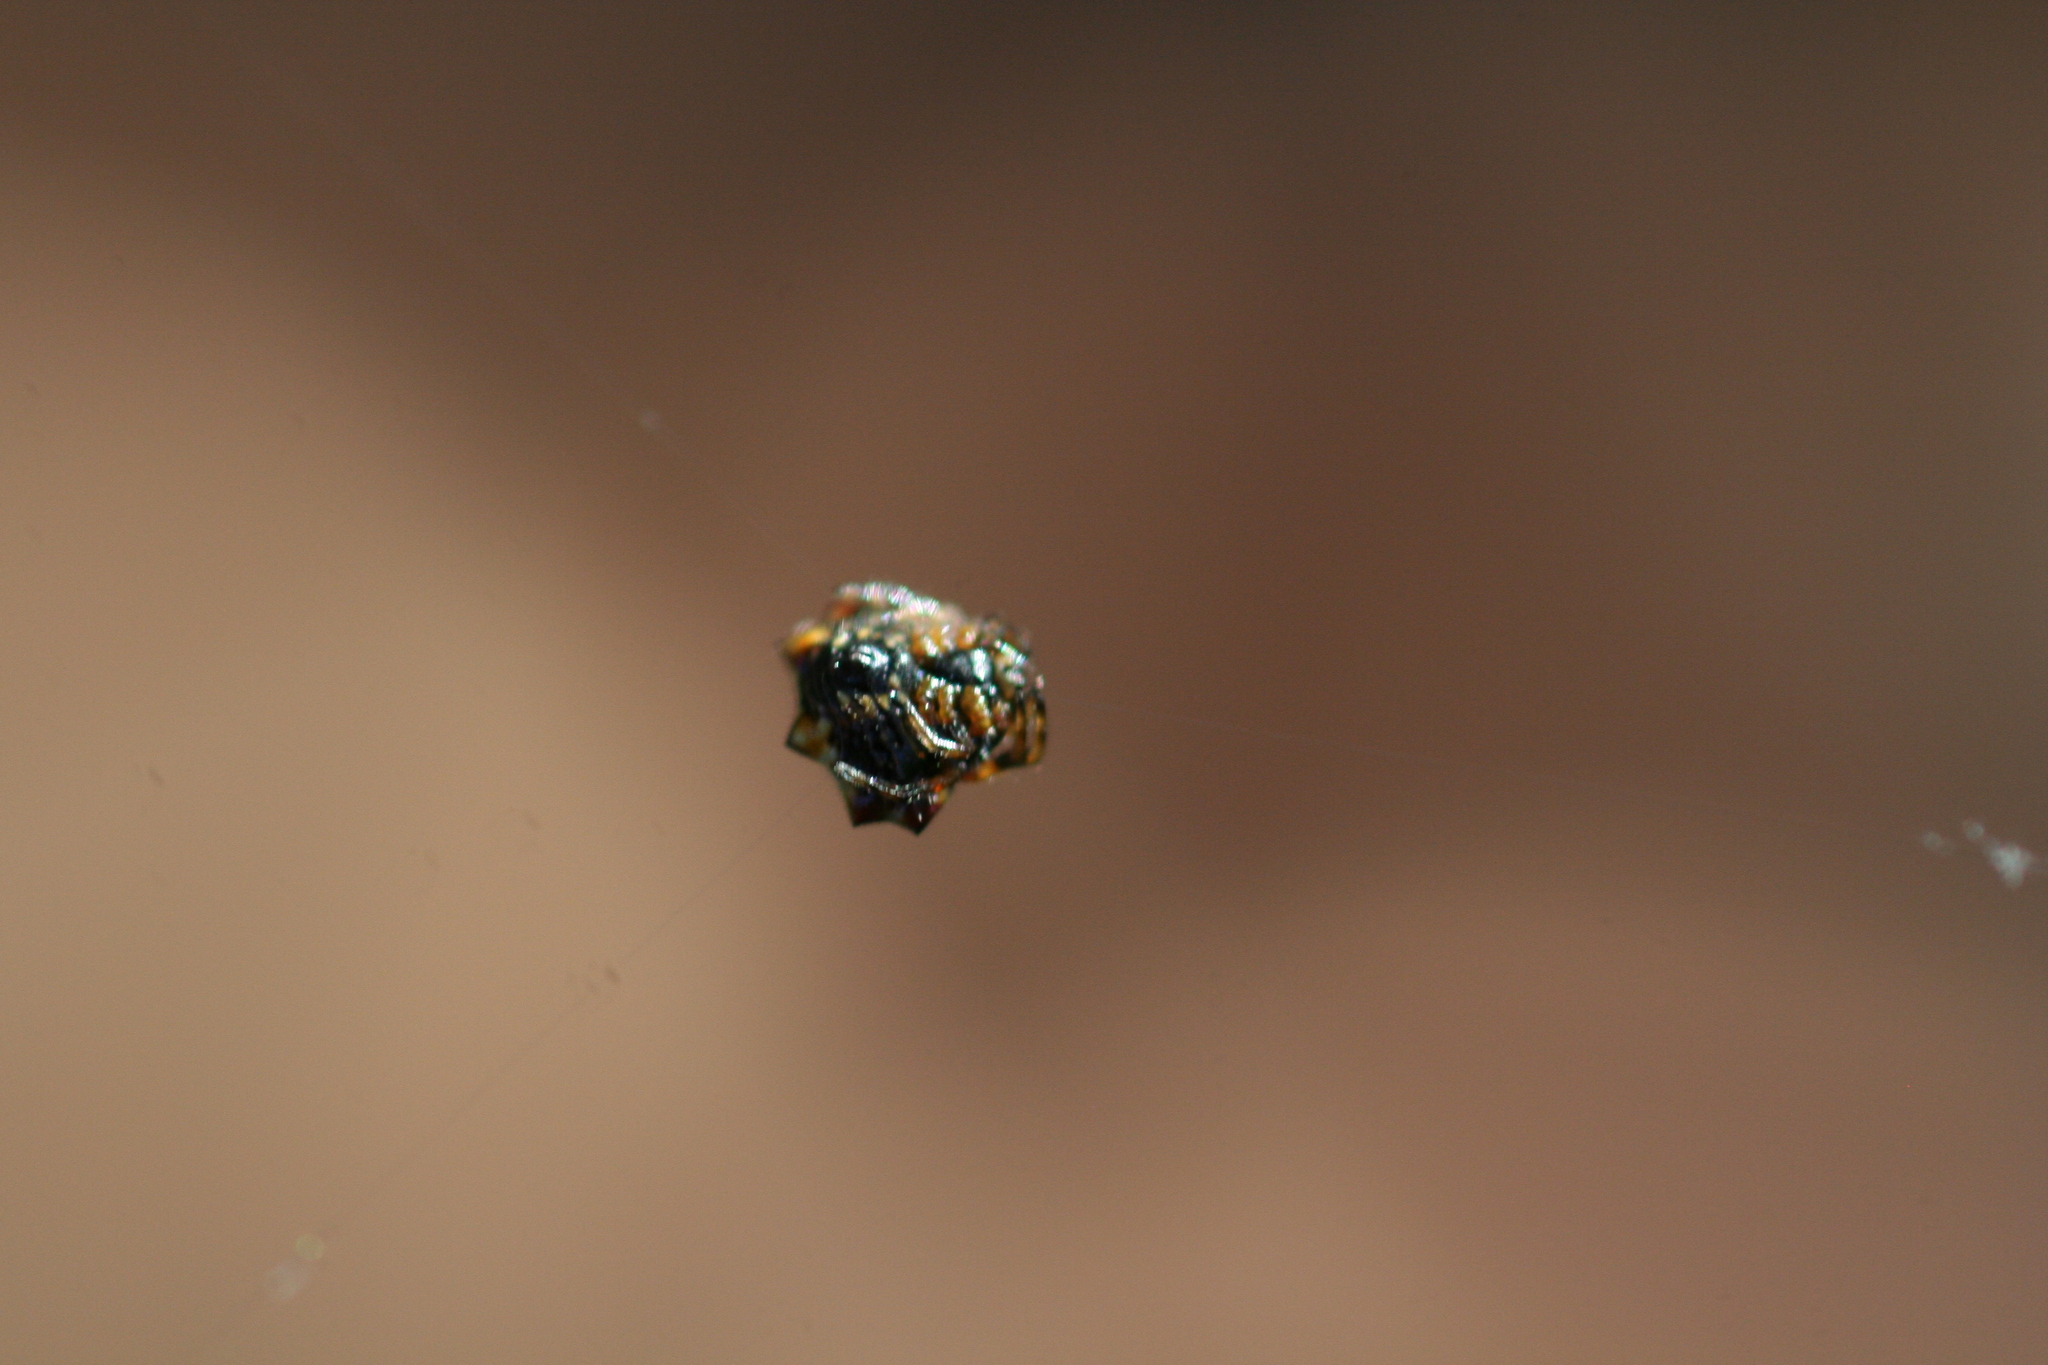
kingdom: Animalia
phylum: Arthropoda
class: Arachnida
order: Araneae
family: Araneidae
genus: Gasteracantha
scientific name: Gasteracantha cancriformis
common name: Orb weavers
